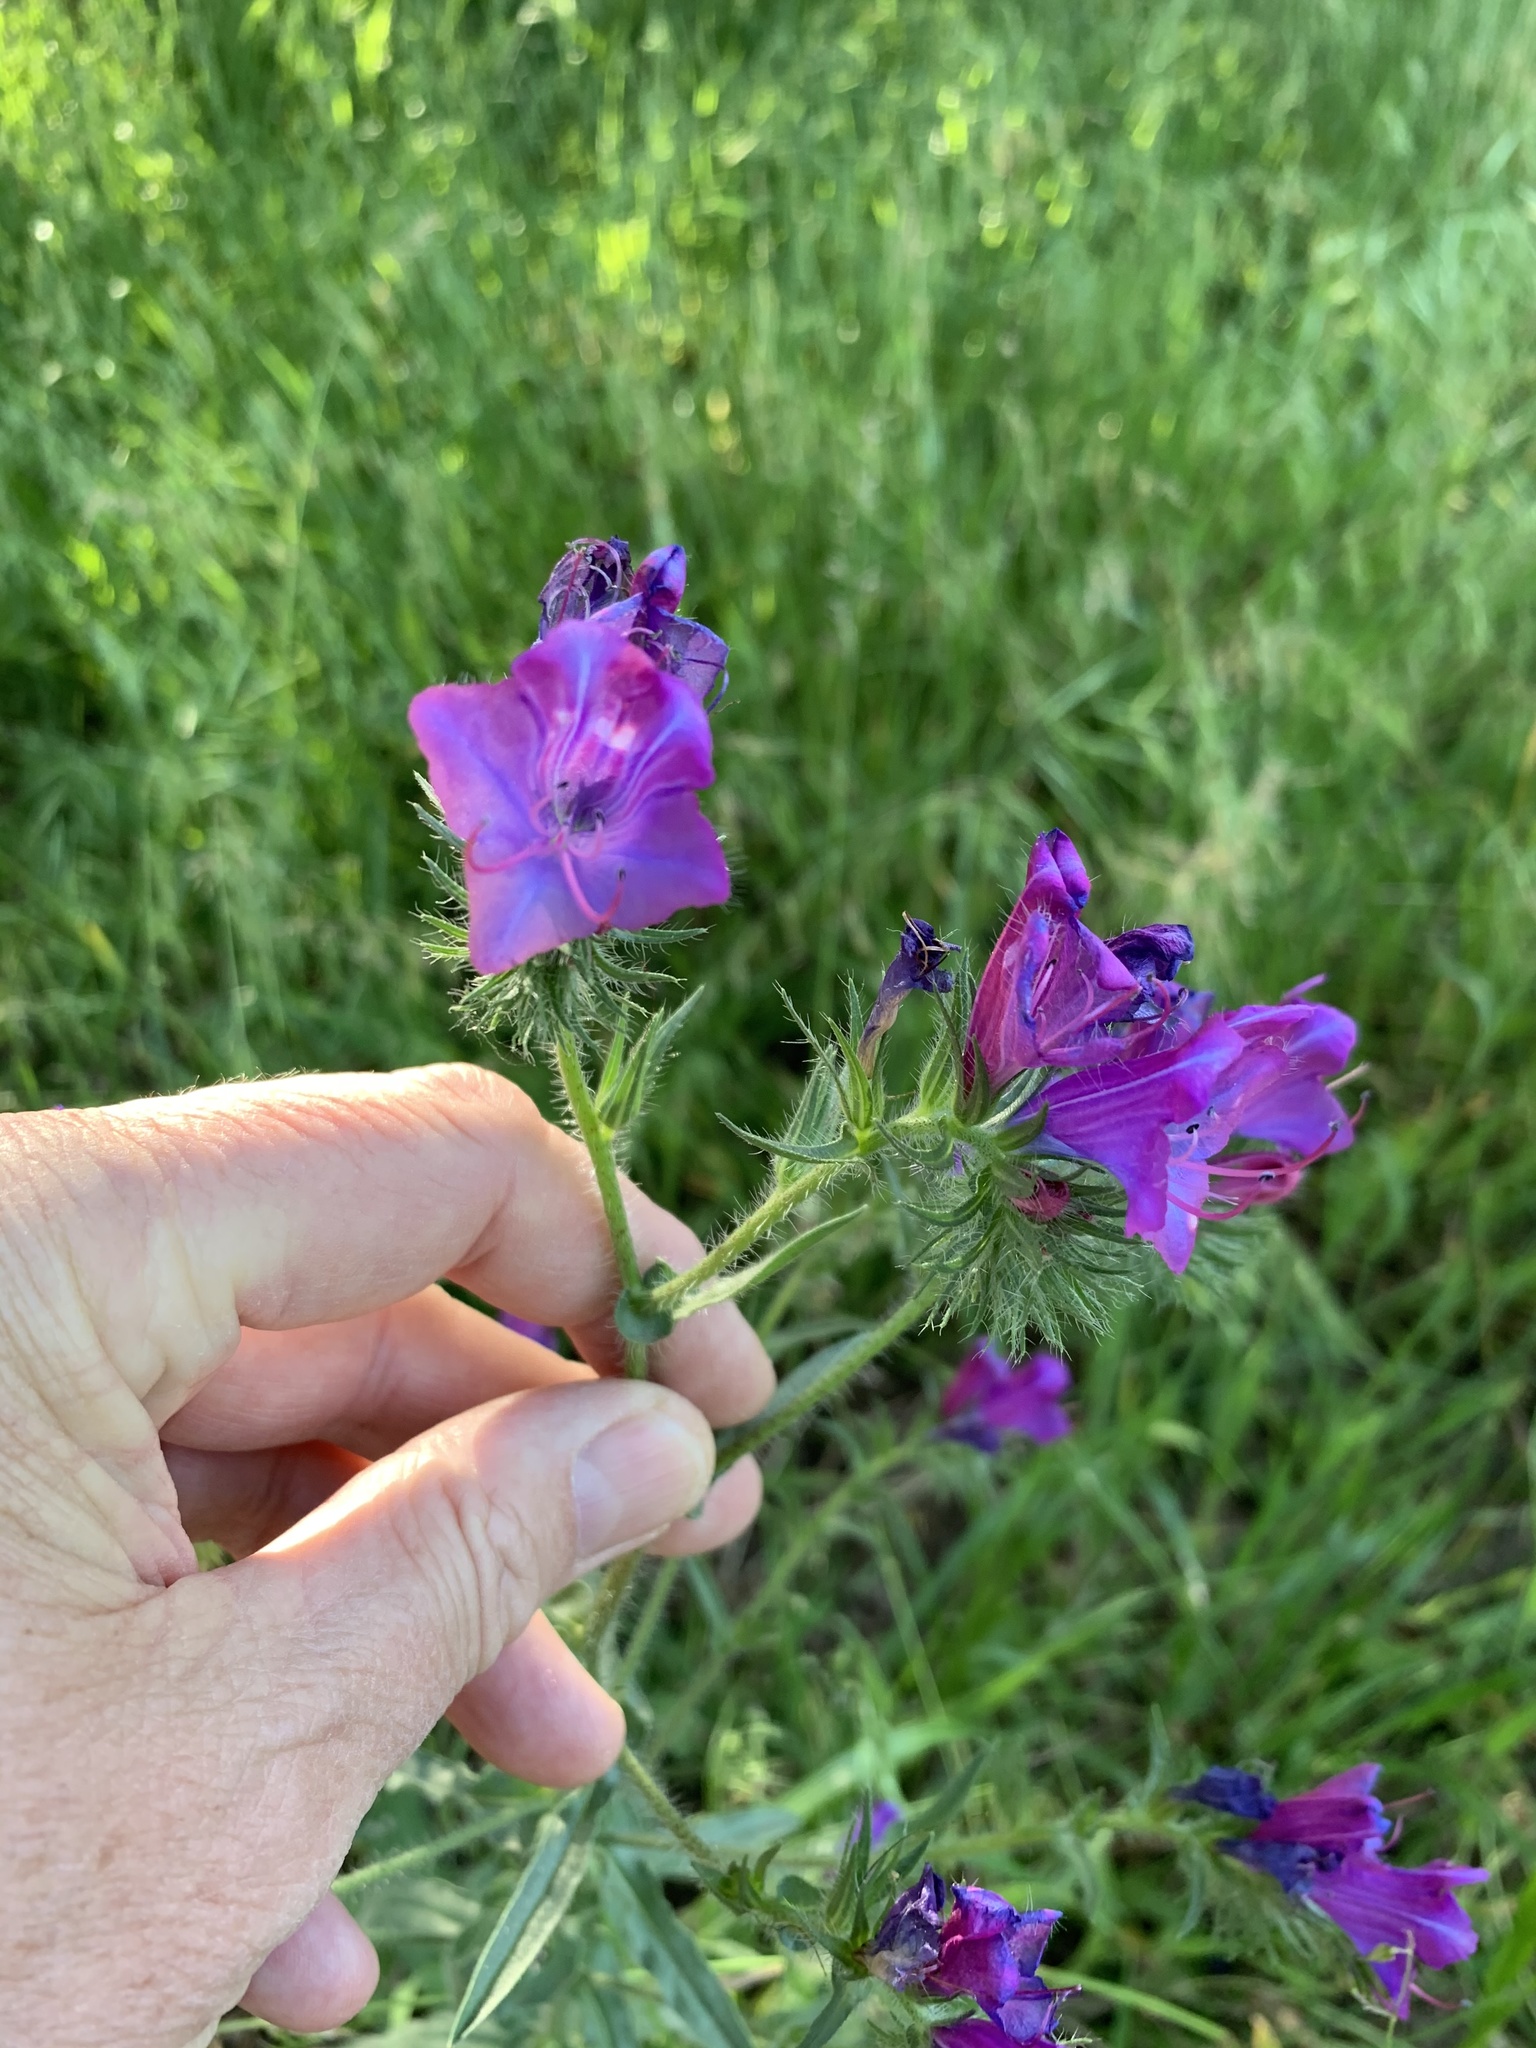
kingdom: Plantae
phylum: Tracheophyta
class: Magnoliopsida
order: Boraginales
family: Boraginaceae
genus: Echium
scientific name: Echium plantagineum
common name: Purple viper's-bugloss
